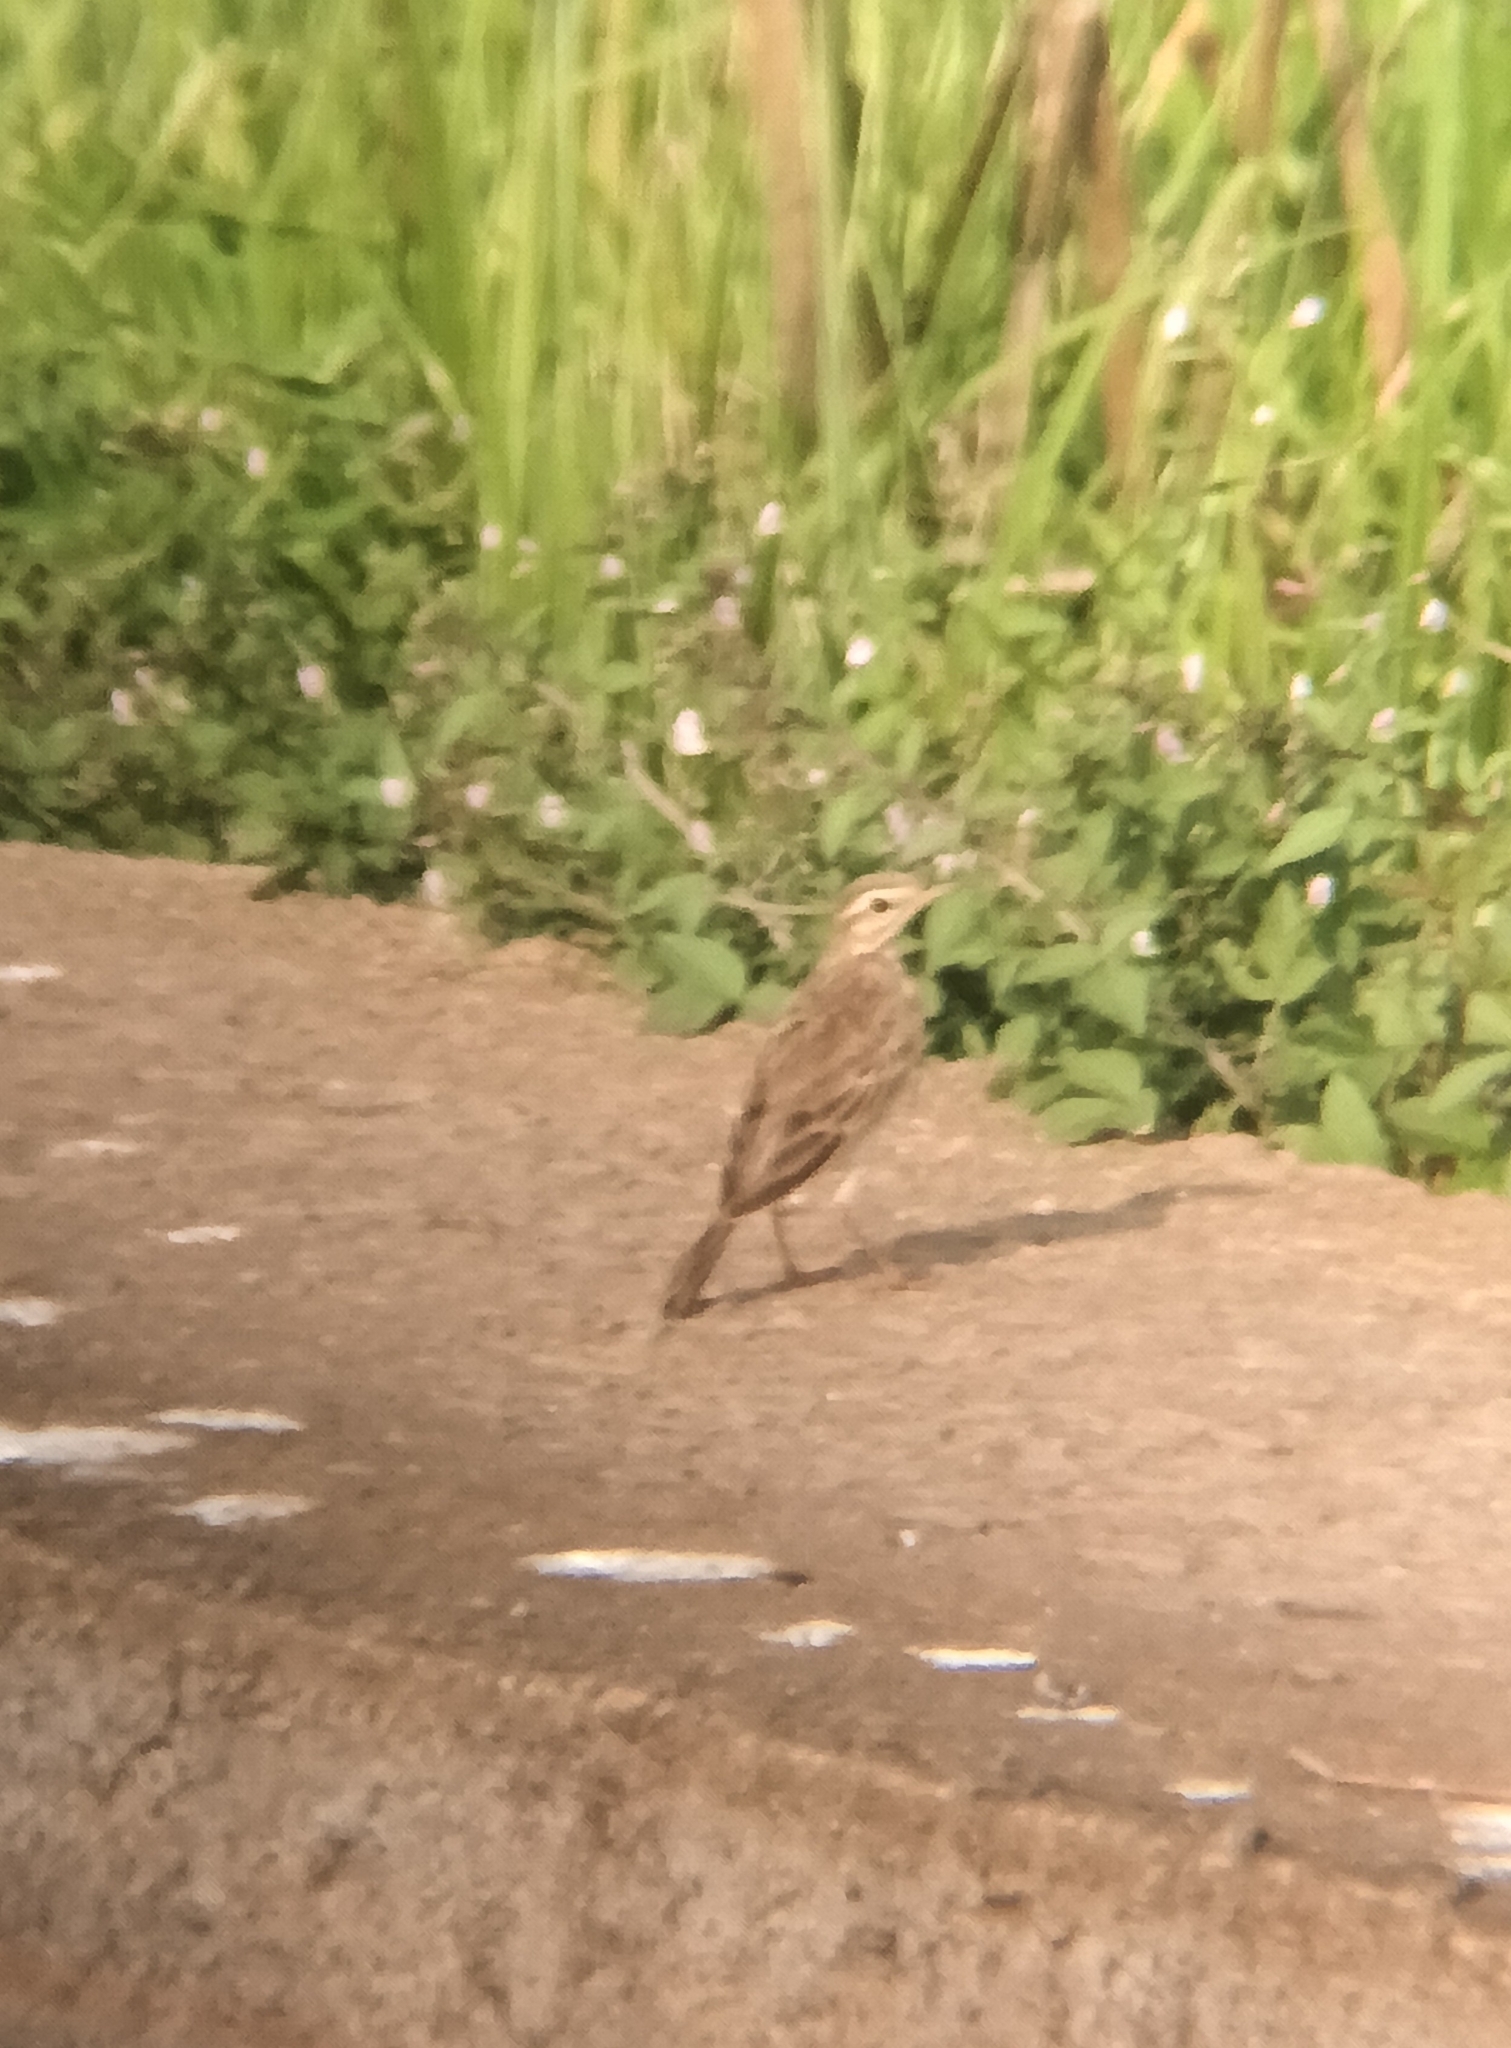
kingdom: Animalia
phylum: Chordata
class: Aves
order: Passeriformes
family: Motacillidae
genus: Anthus
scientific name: Anthus rufulus
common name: Paddyfield pipit
